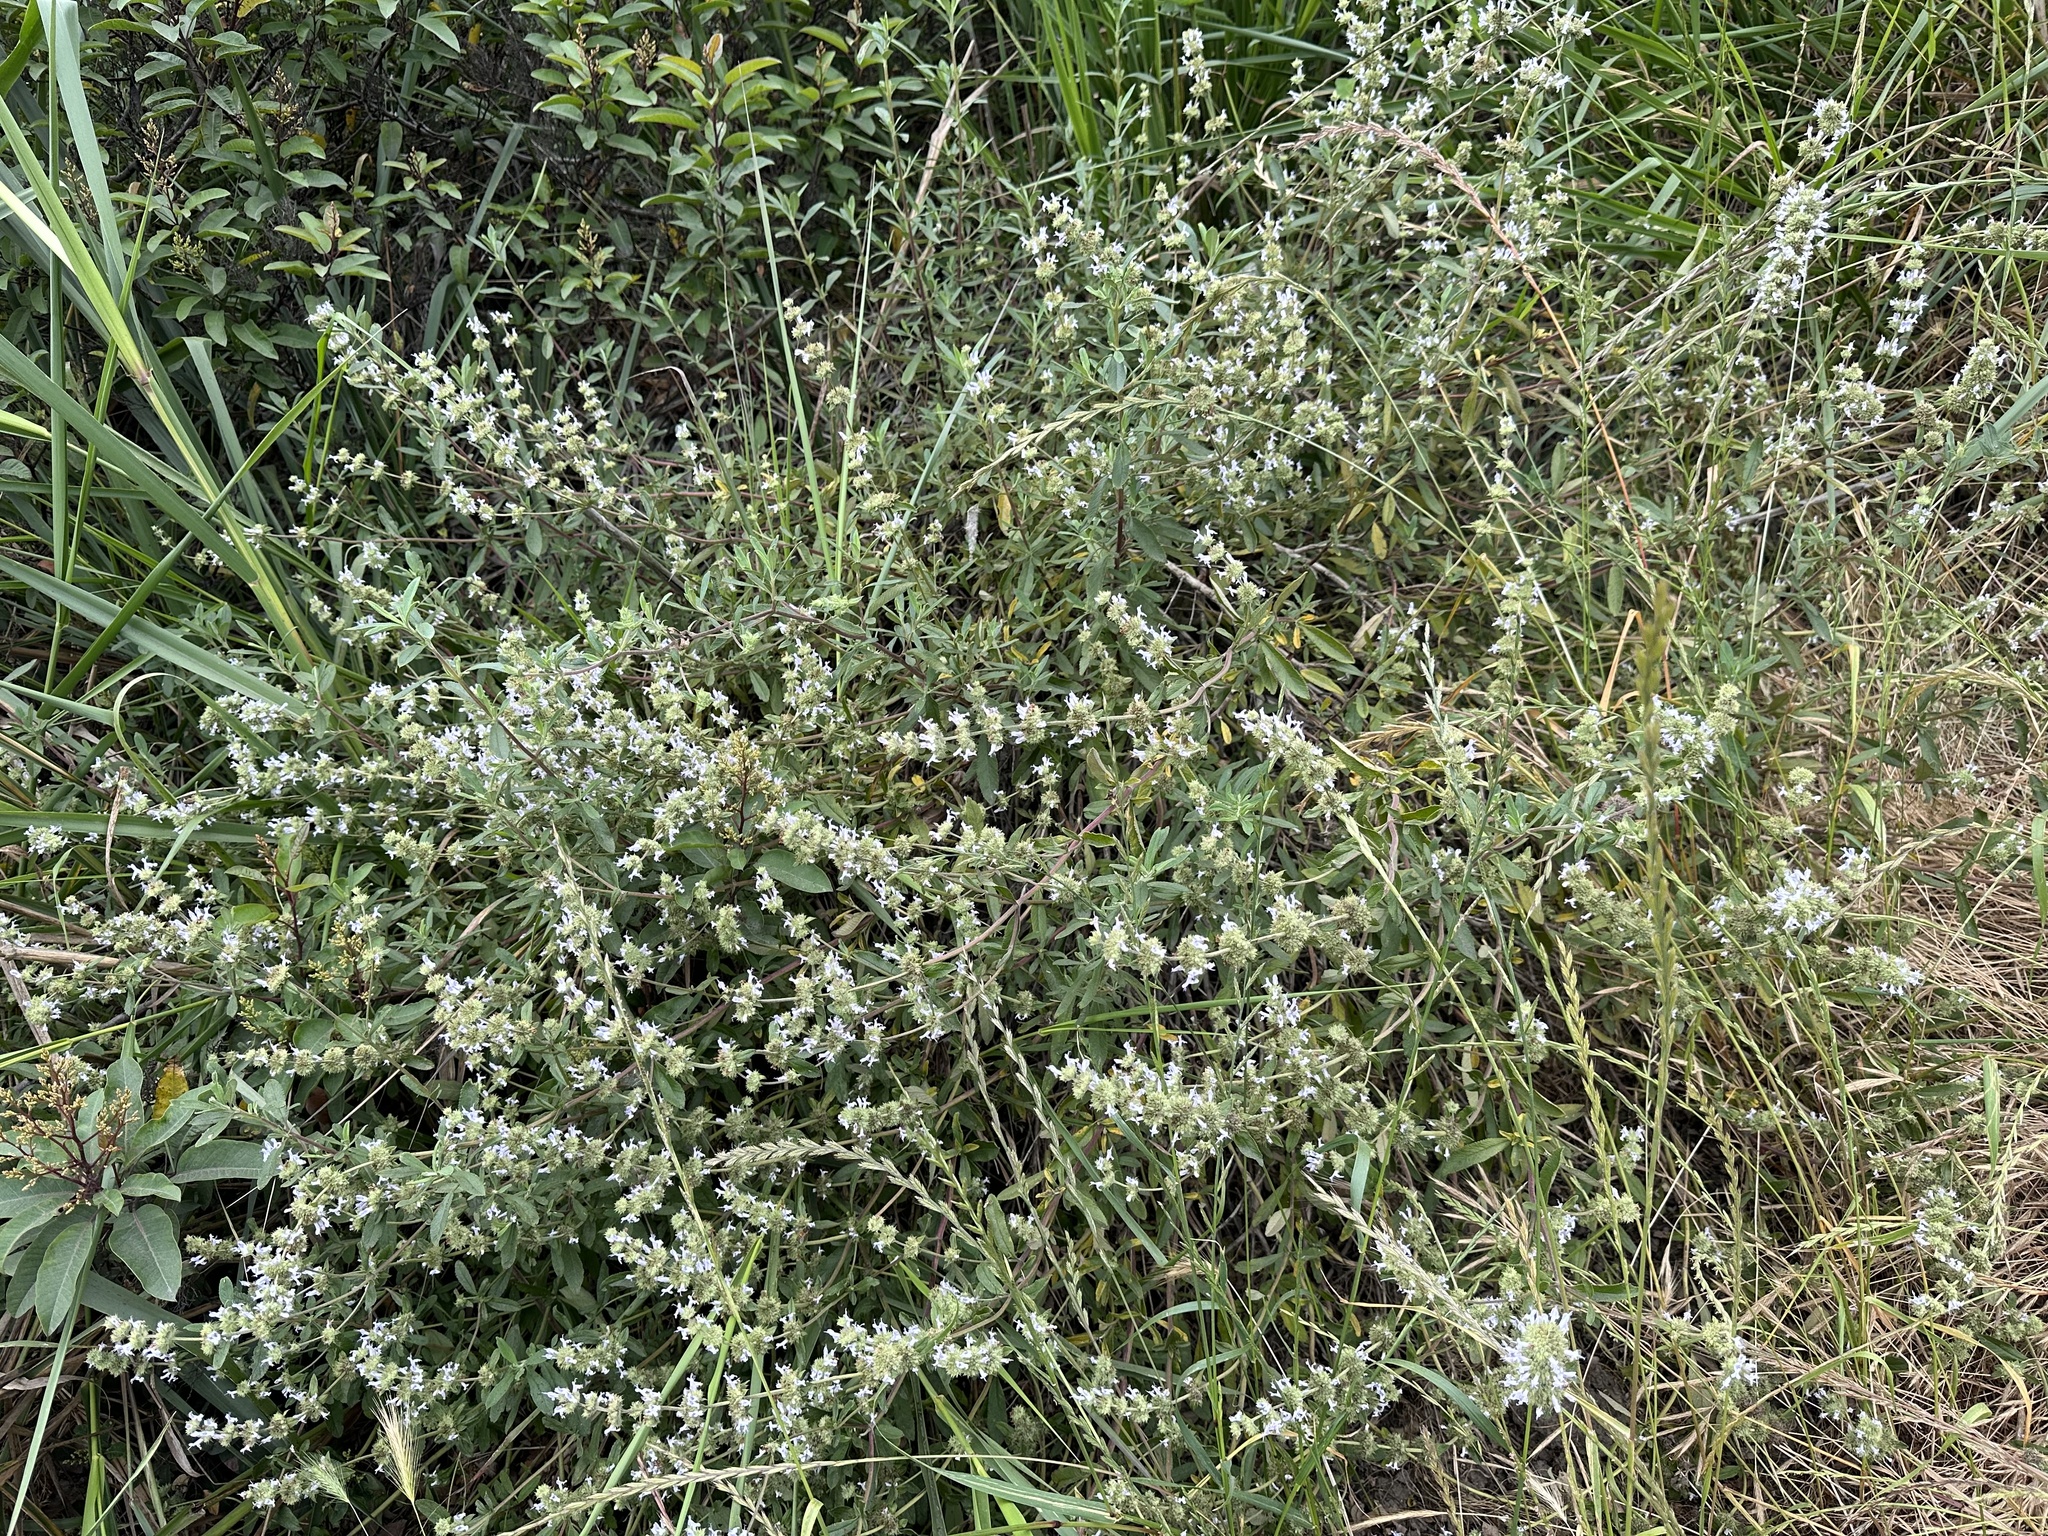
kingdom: Plantae
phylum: Tracheophyta
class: Magnoliopsida
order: Lamiales
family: Lamiaceae
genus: Salvia
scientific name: Salvia mellifera
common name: Black sage
